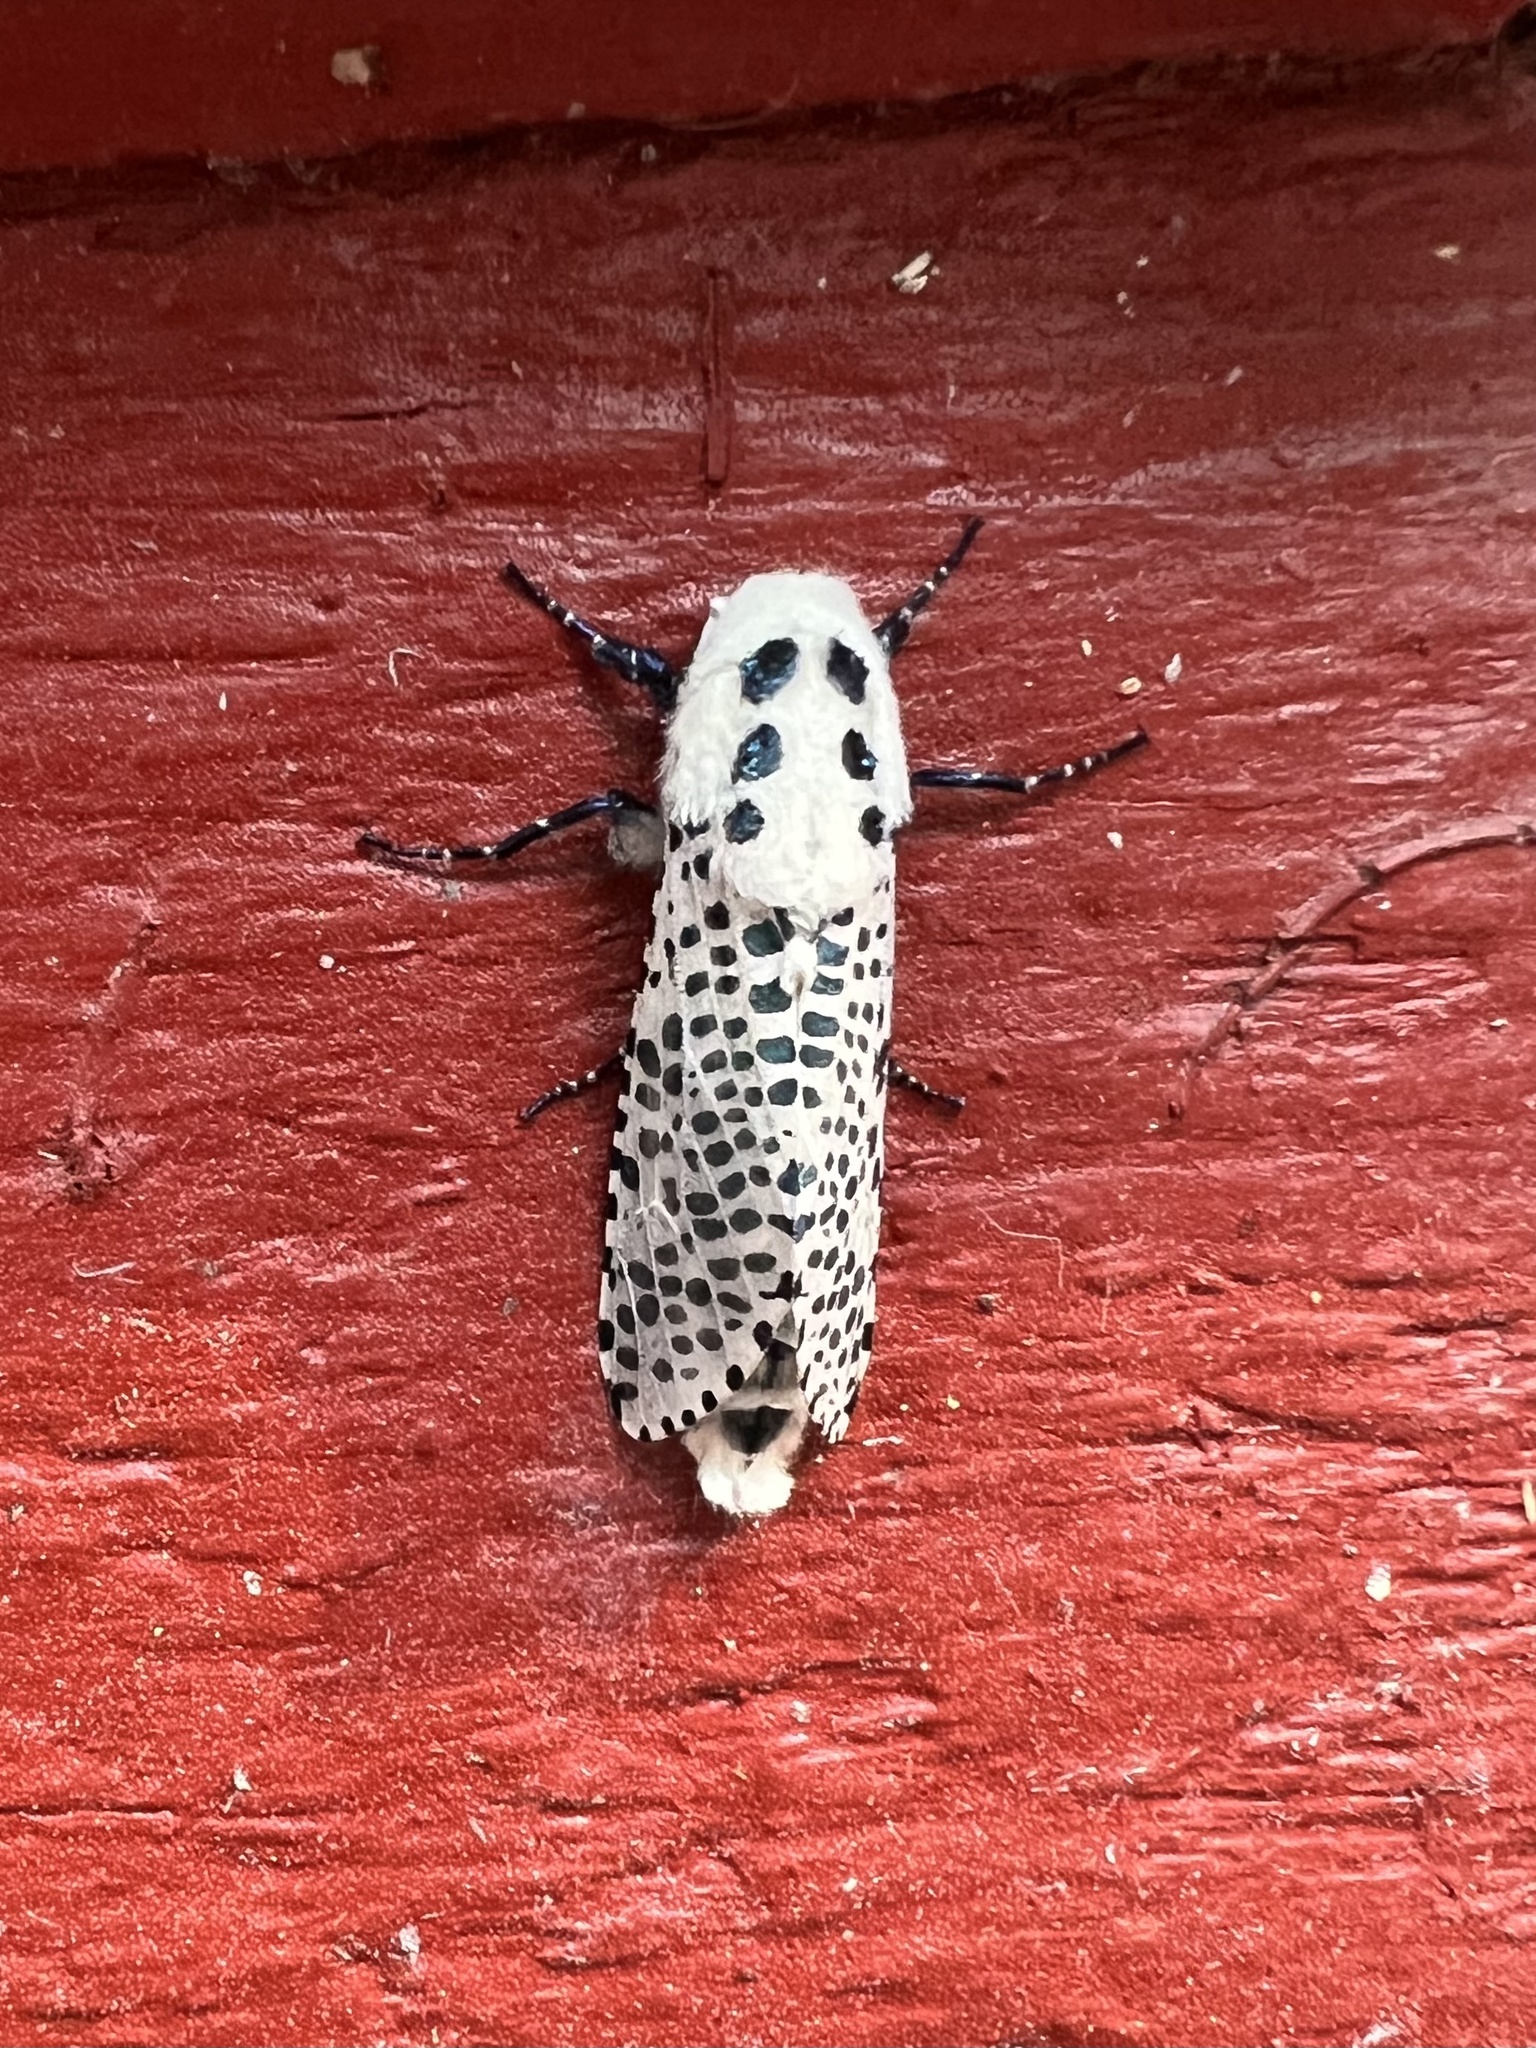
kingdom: Animalia
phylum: Arthropoda
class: Insecta
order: Lepidoptera
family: Cossidae
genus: Zeuzera
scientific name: Zeuzera pyrina
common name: Leopard moth
